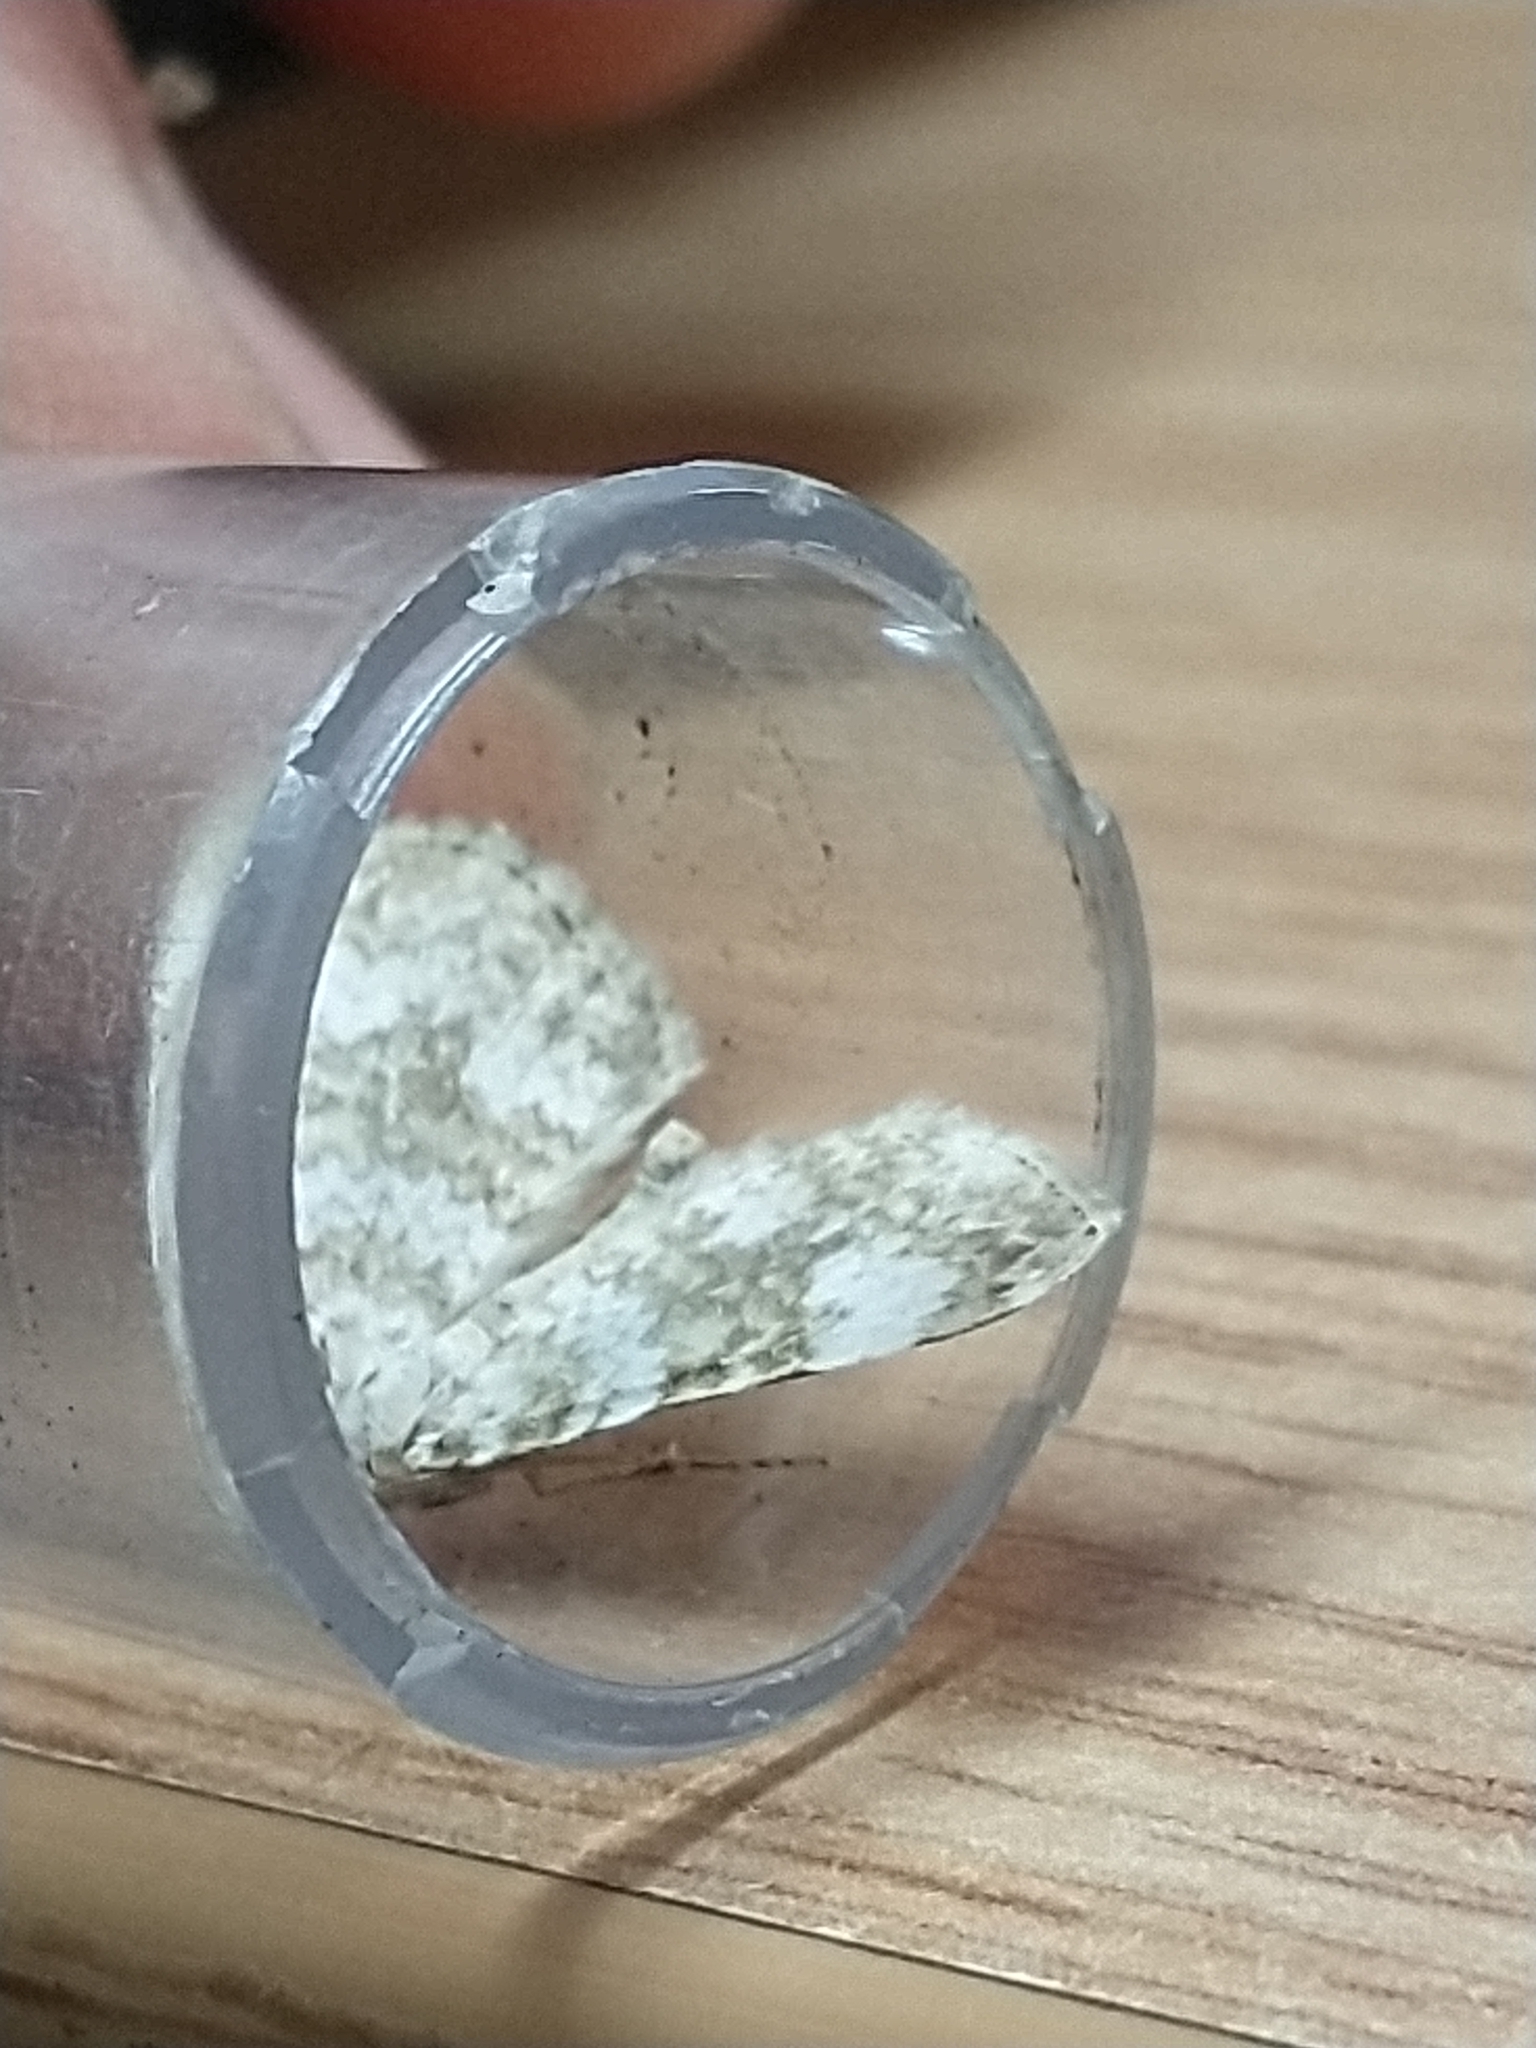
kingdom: Animalia
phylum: Arthropoda
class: Insecta
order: Lepidoptera
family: Geometridae
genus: Perizoma
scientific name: Perizoma flavofasciata
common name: Sandy carpet
